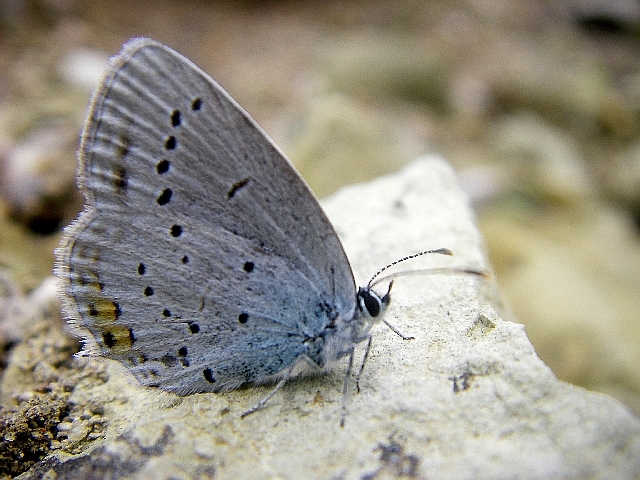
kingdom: Animalia
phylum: Arthropoda
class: Insecta
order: Lepidoptera
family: Lycaenidae
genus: Elkalyce
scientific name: Elkalyce argiades
